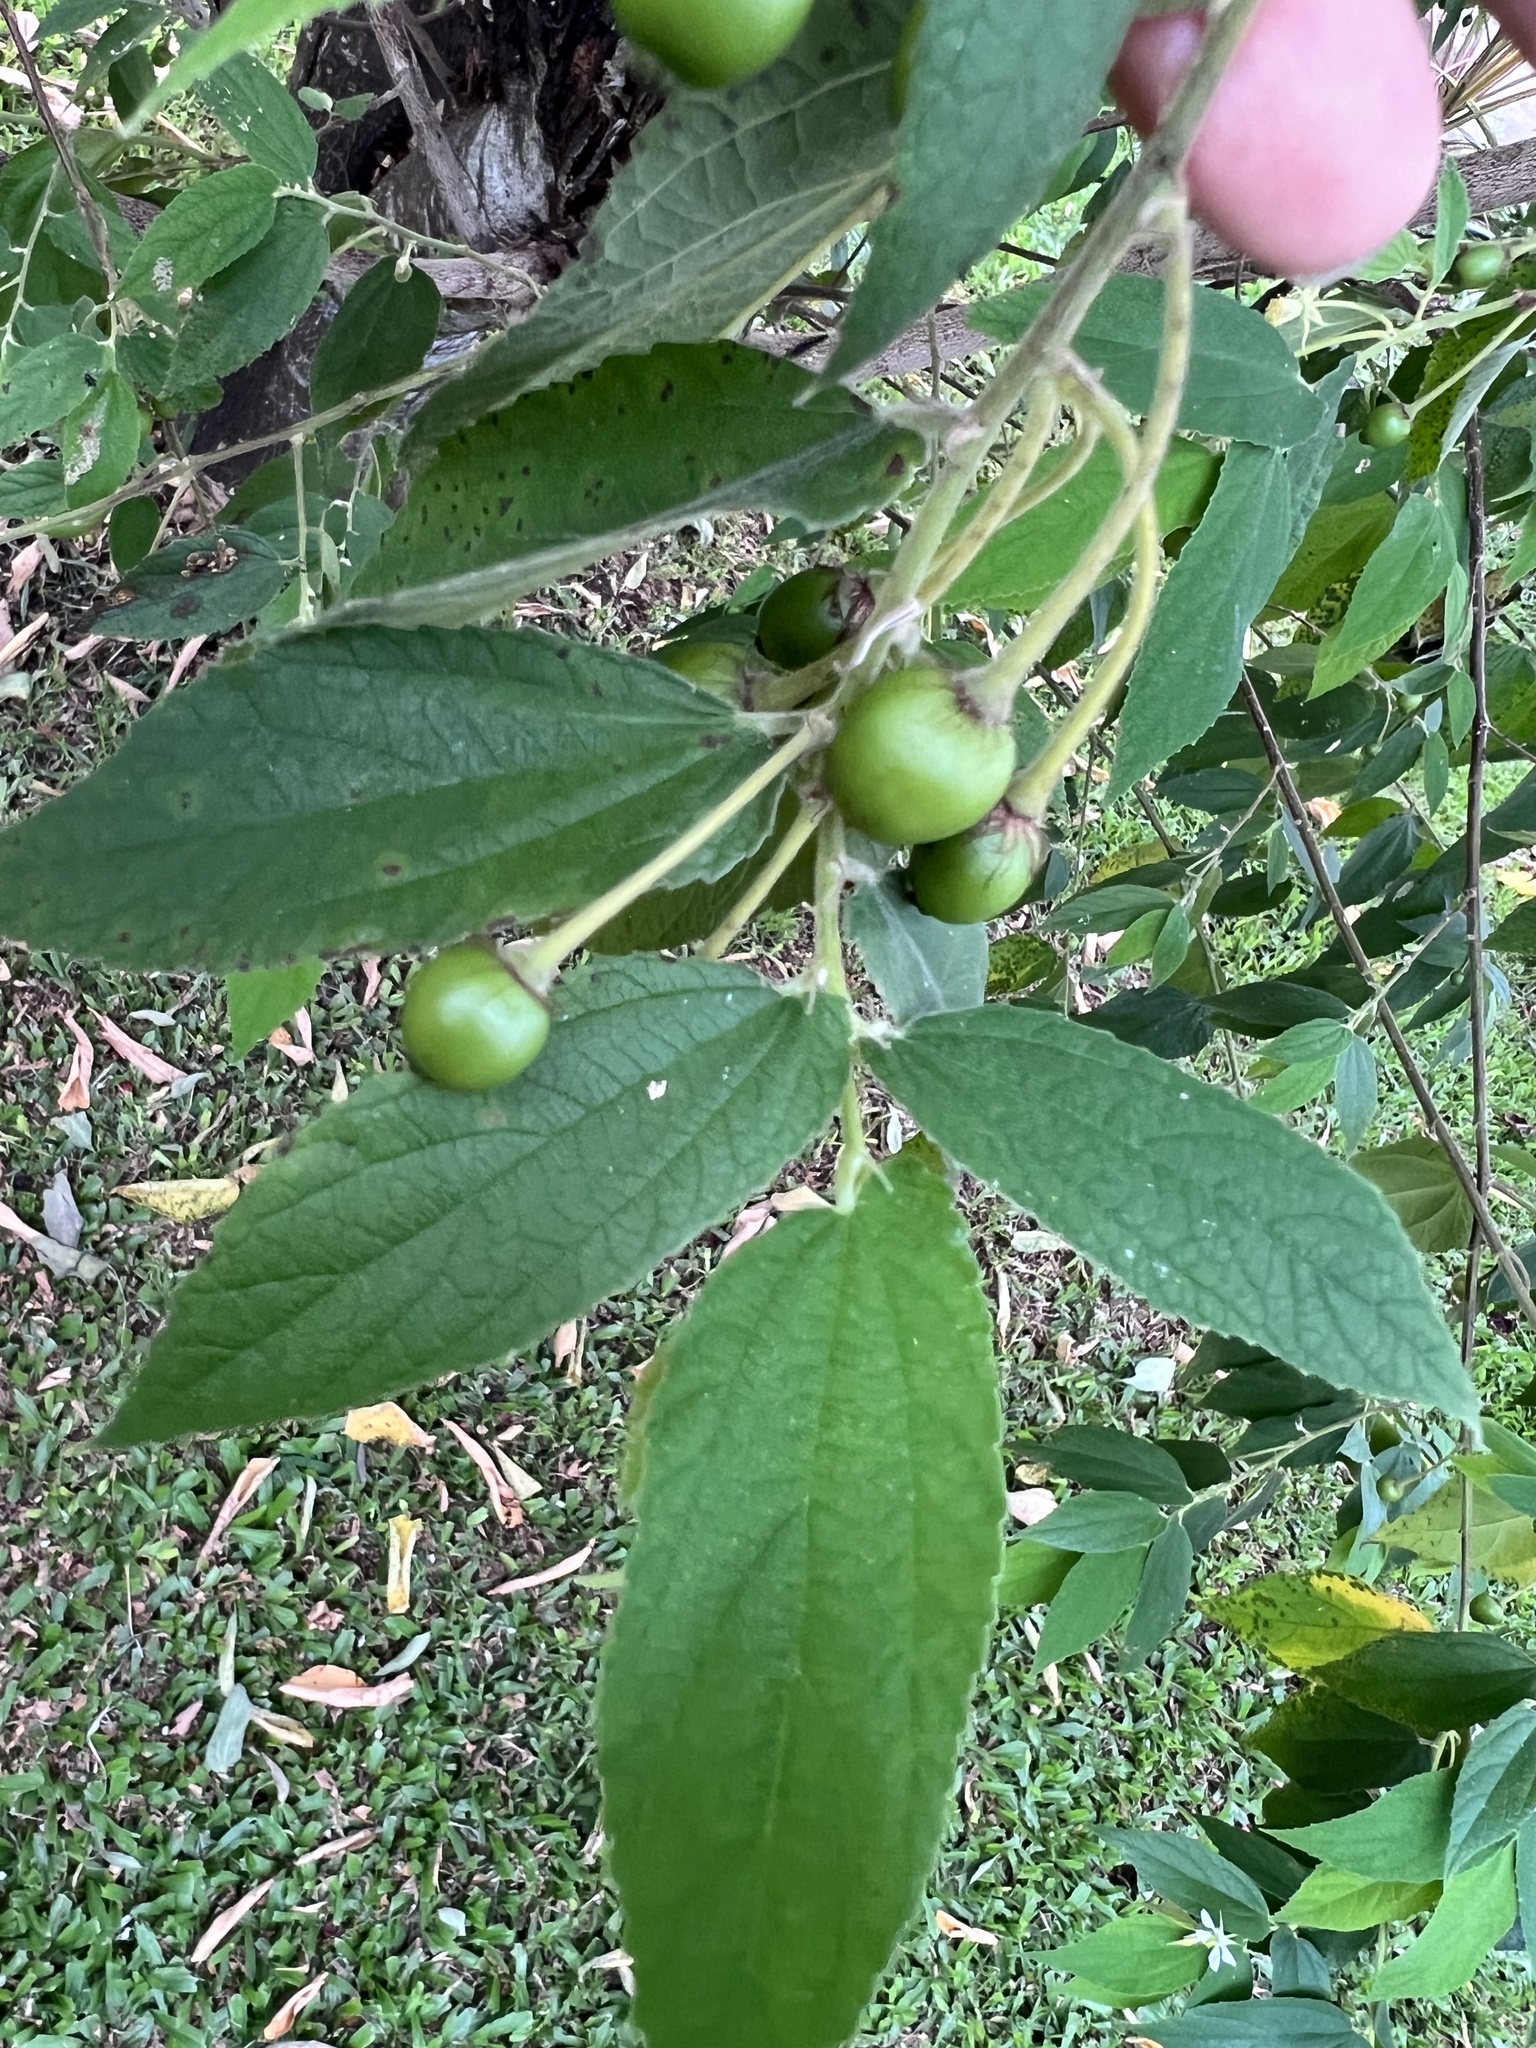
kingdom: Plantae
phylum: Tracheophyta
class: Magnoliopsida
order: Malvales
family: Muntingiaceae
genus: Muntingia
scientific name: Muntingia calabura
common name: Strawberrytree
